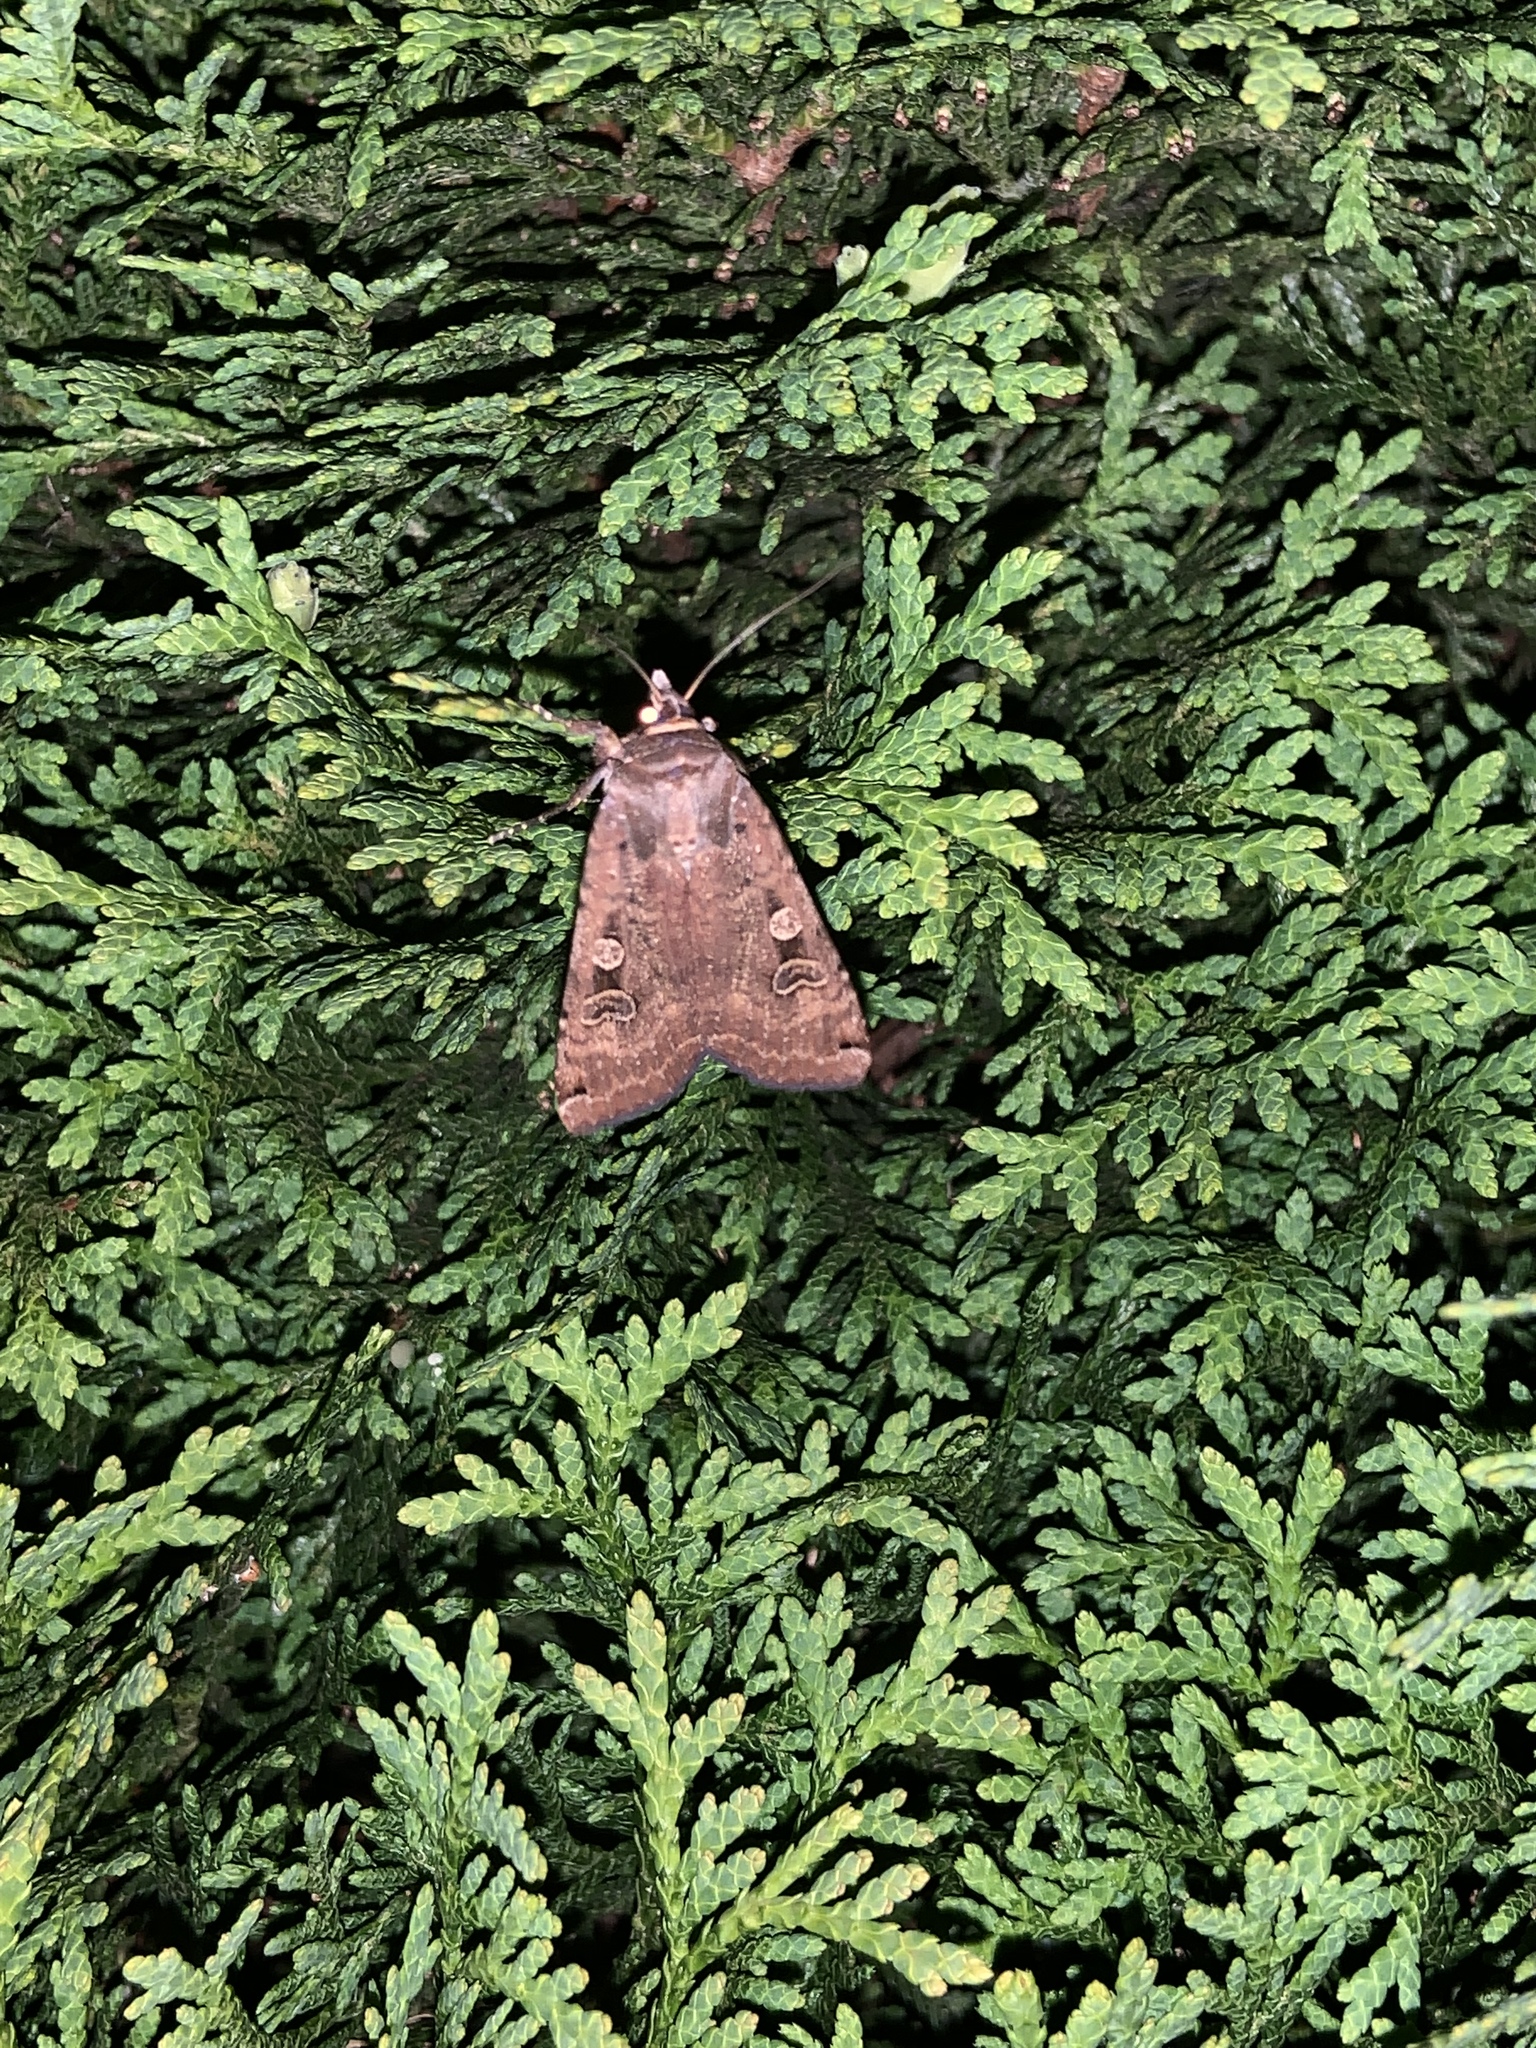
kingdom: Animalia
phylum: Arthropoda
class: Insecta
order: Lepidoptera
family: Noctuidae
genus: Noctua
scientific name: Noctua pronuba
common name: Large yellow underwing
